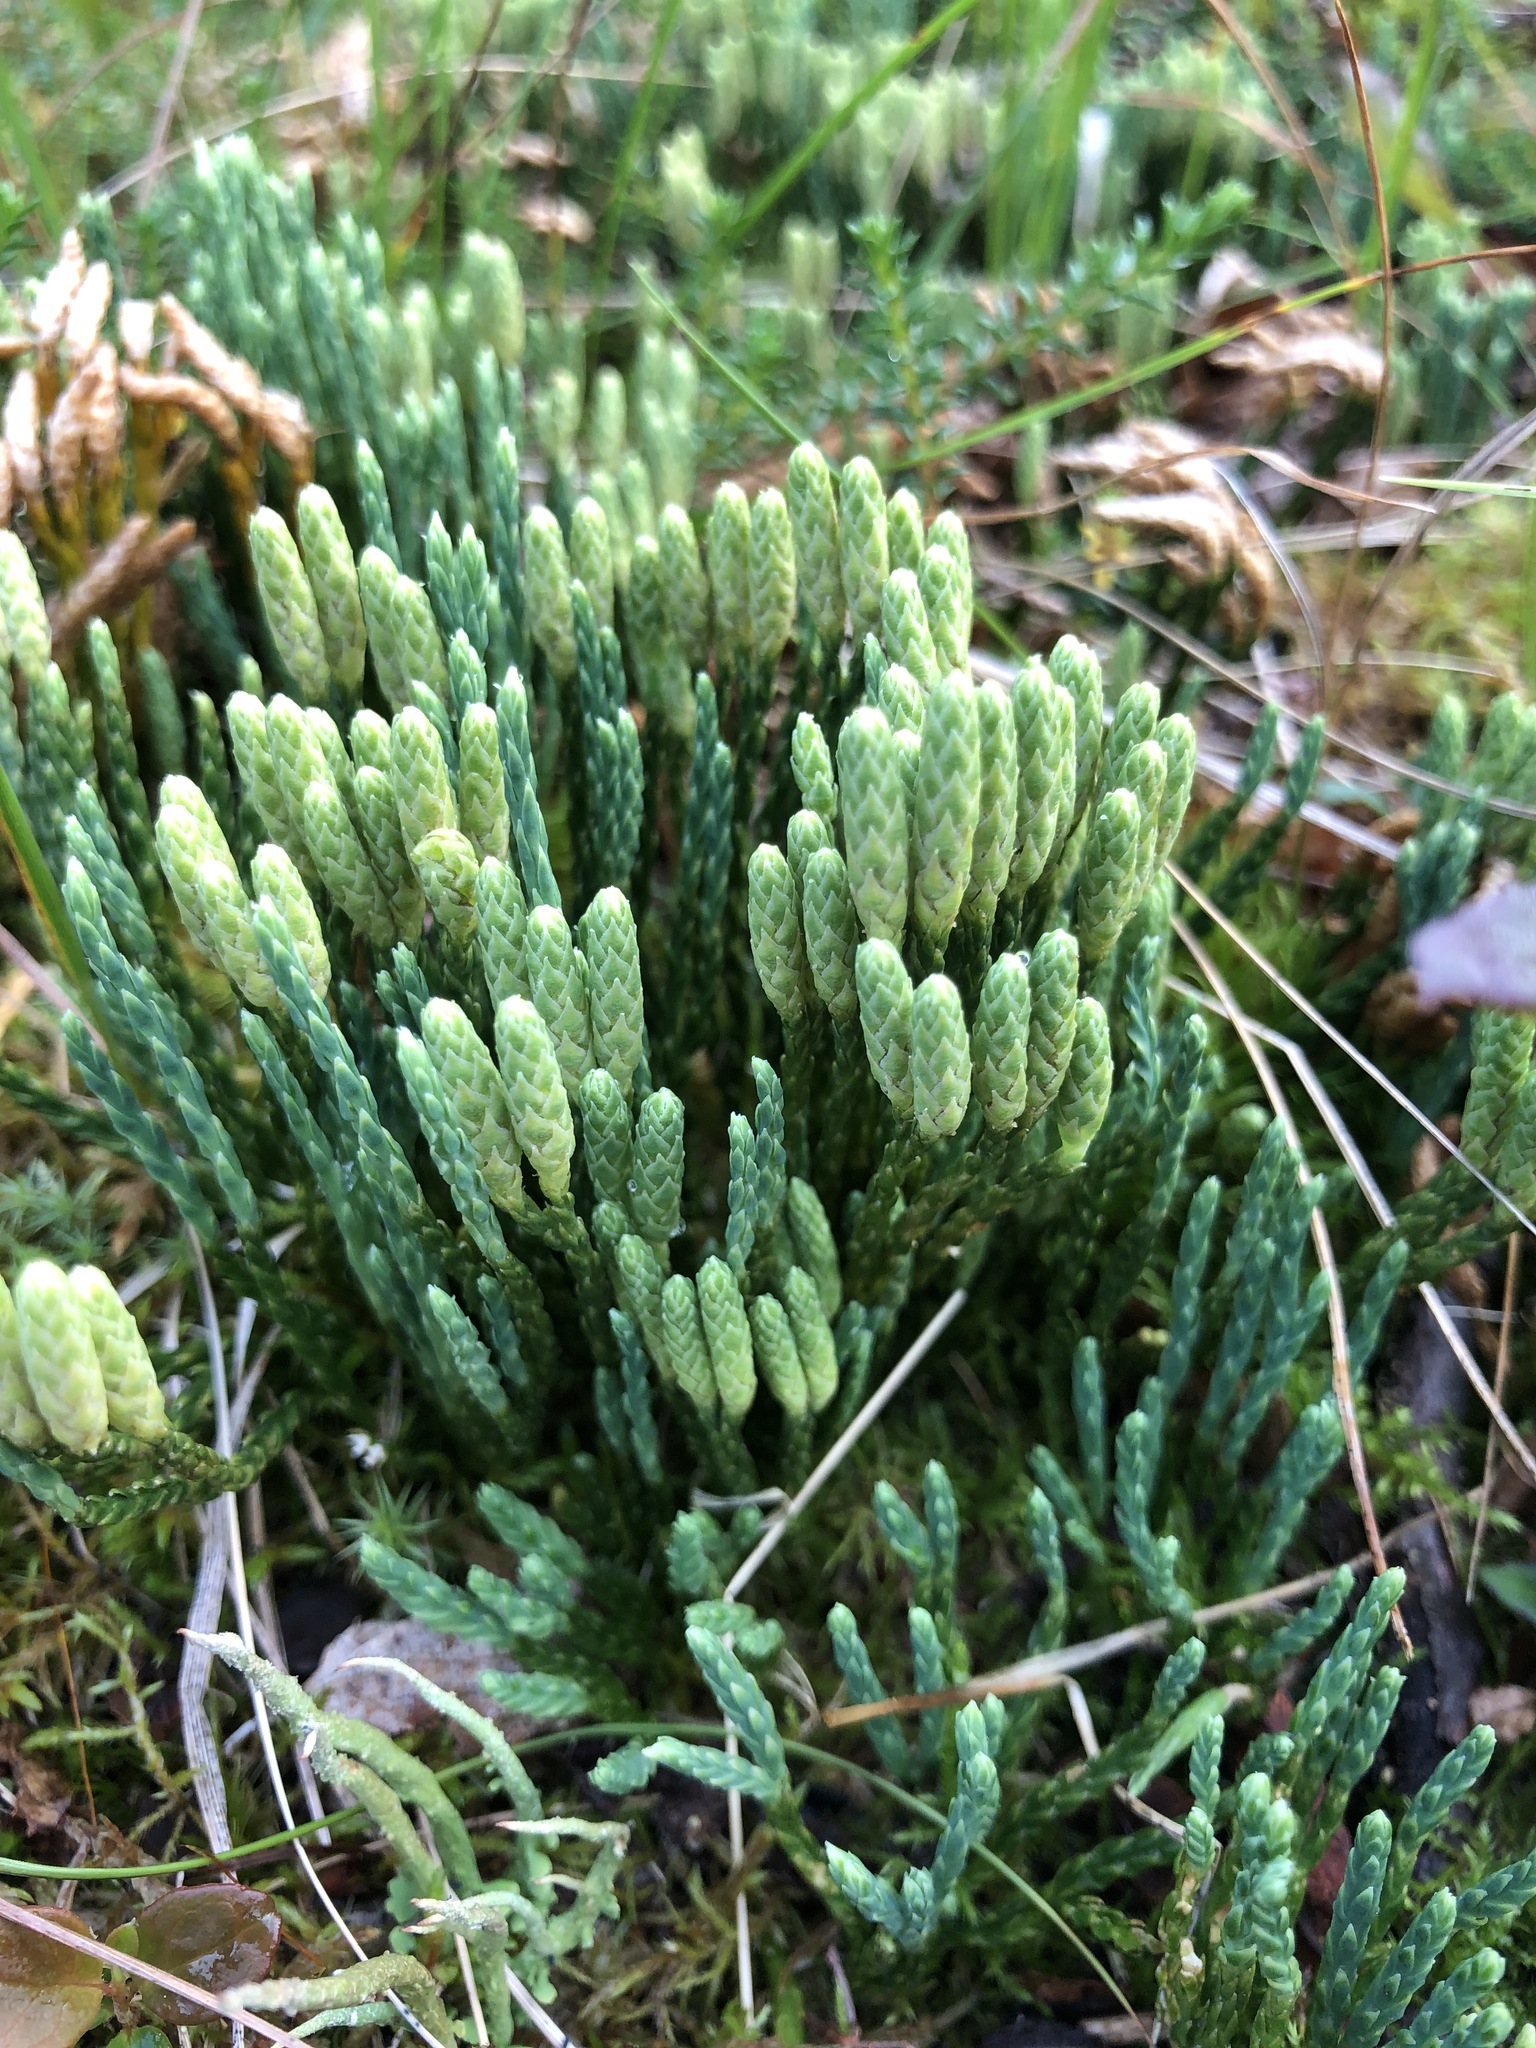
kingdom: Plantae
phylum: Tracheophyta
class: Lycopodiopsida
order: Lycopodiales
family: Lycopodiaceae
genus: Diphasiastrum
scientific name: Diphasiastrum alpinum
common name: Alpine clubmoss
